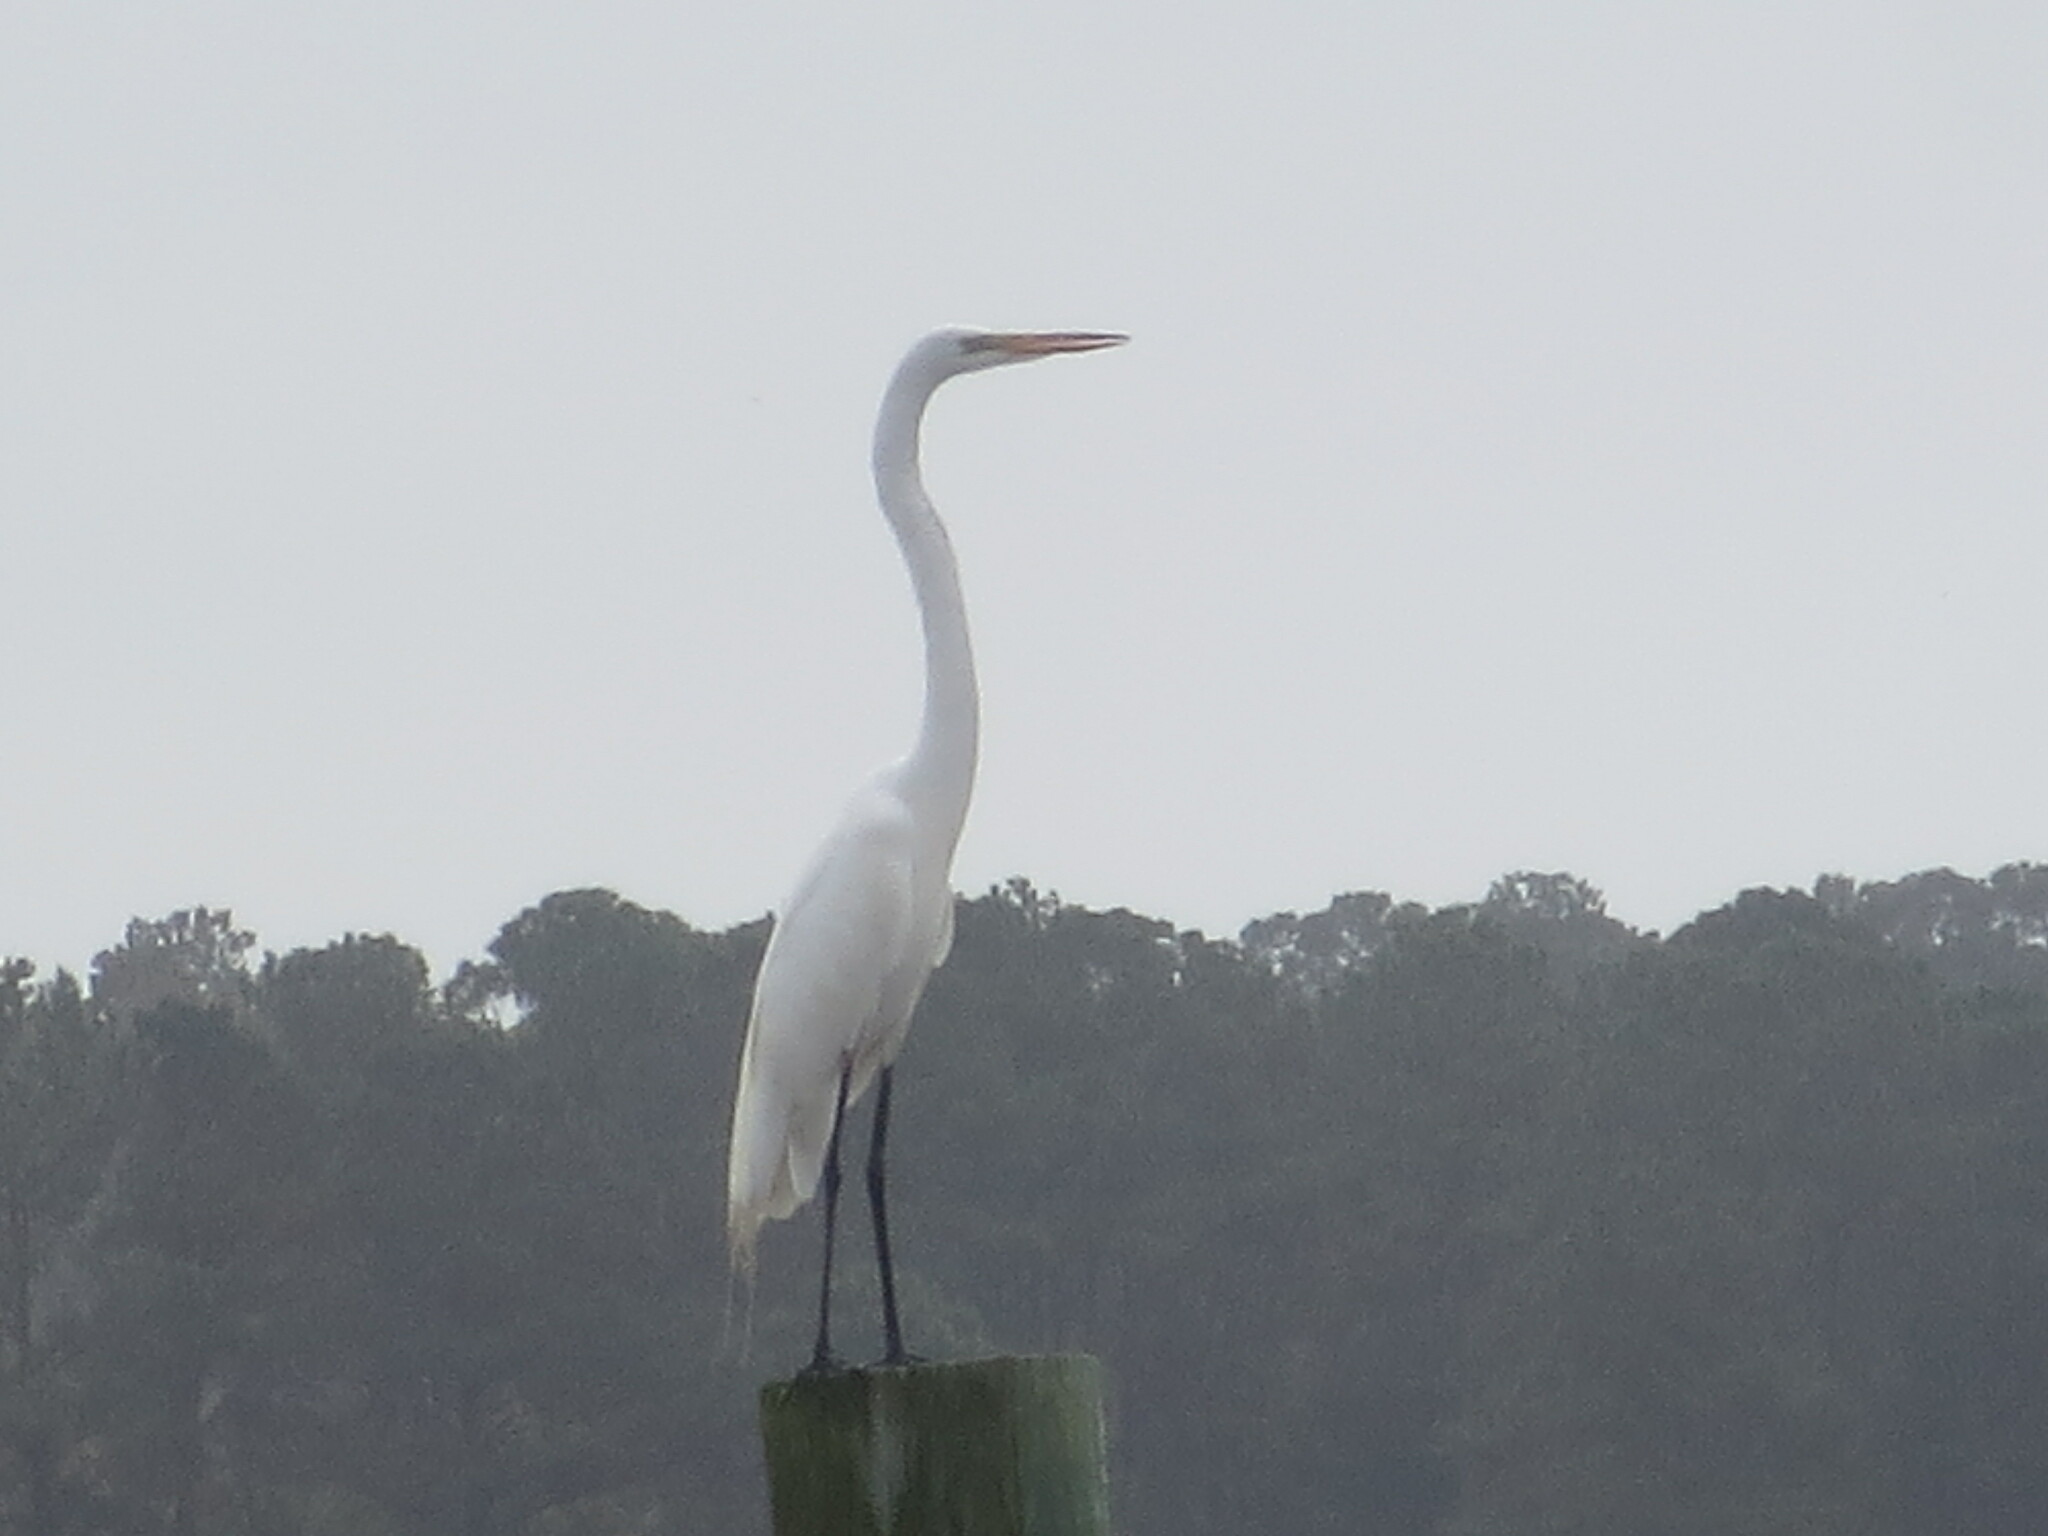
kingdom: Animalia
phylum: Chordata
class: Aves
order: Pelecaniformes
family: Ardeidae
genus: Ardea
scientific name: Ardea alba
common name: Great egret
